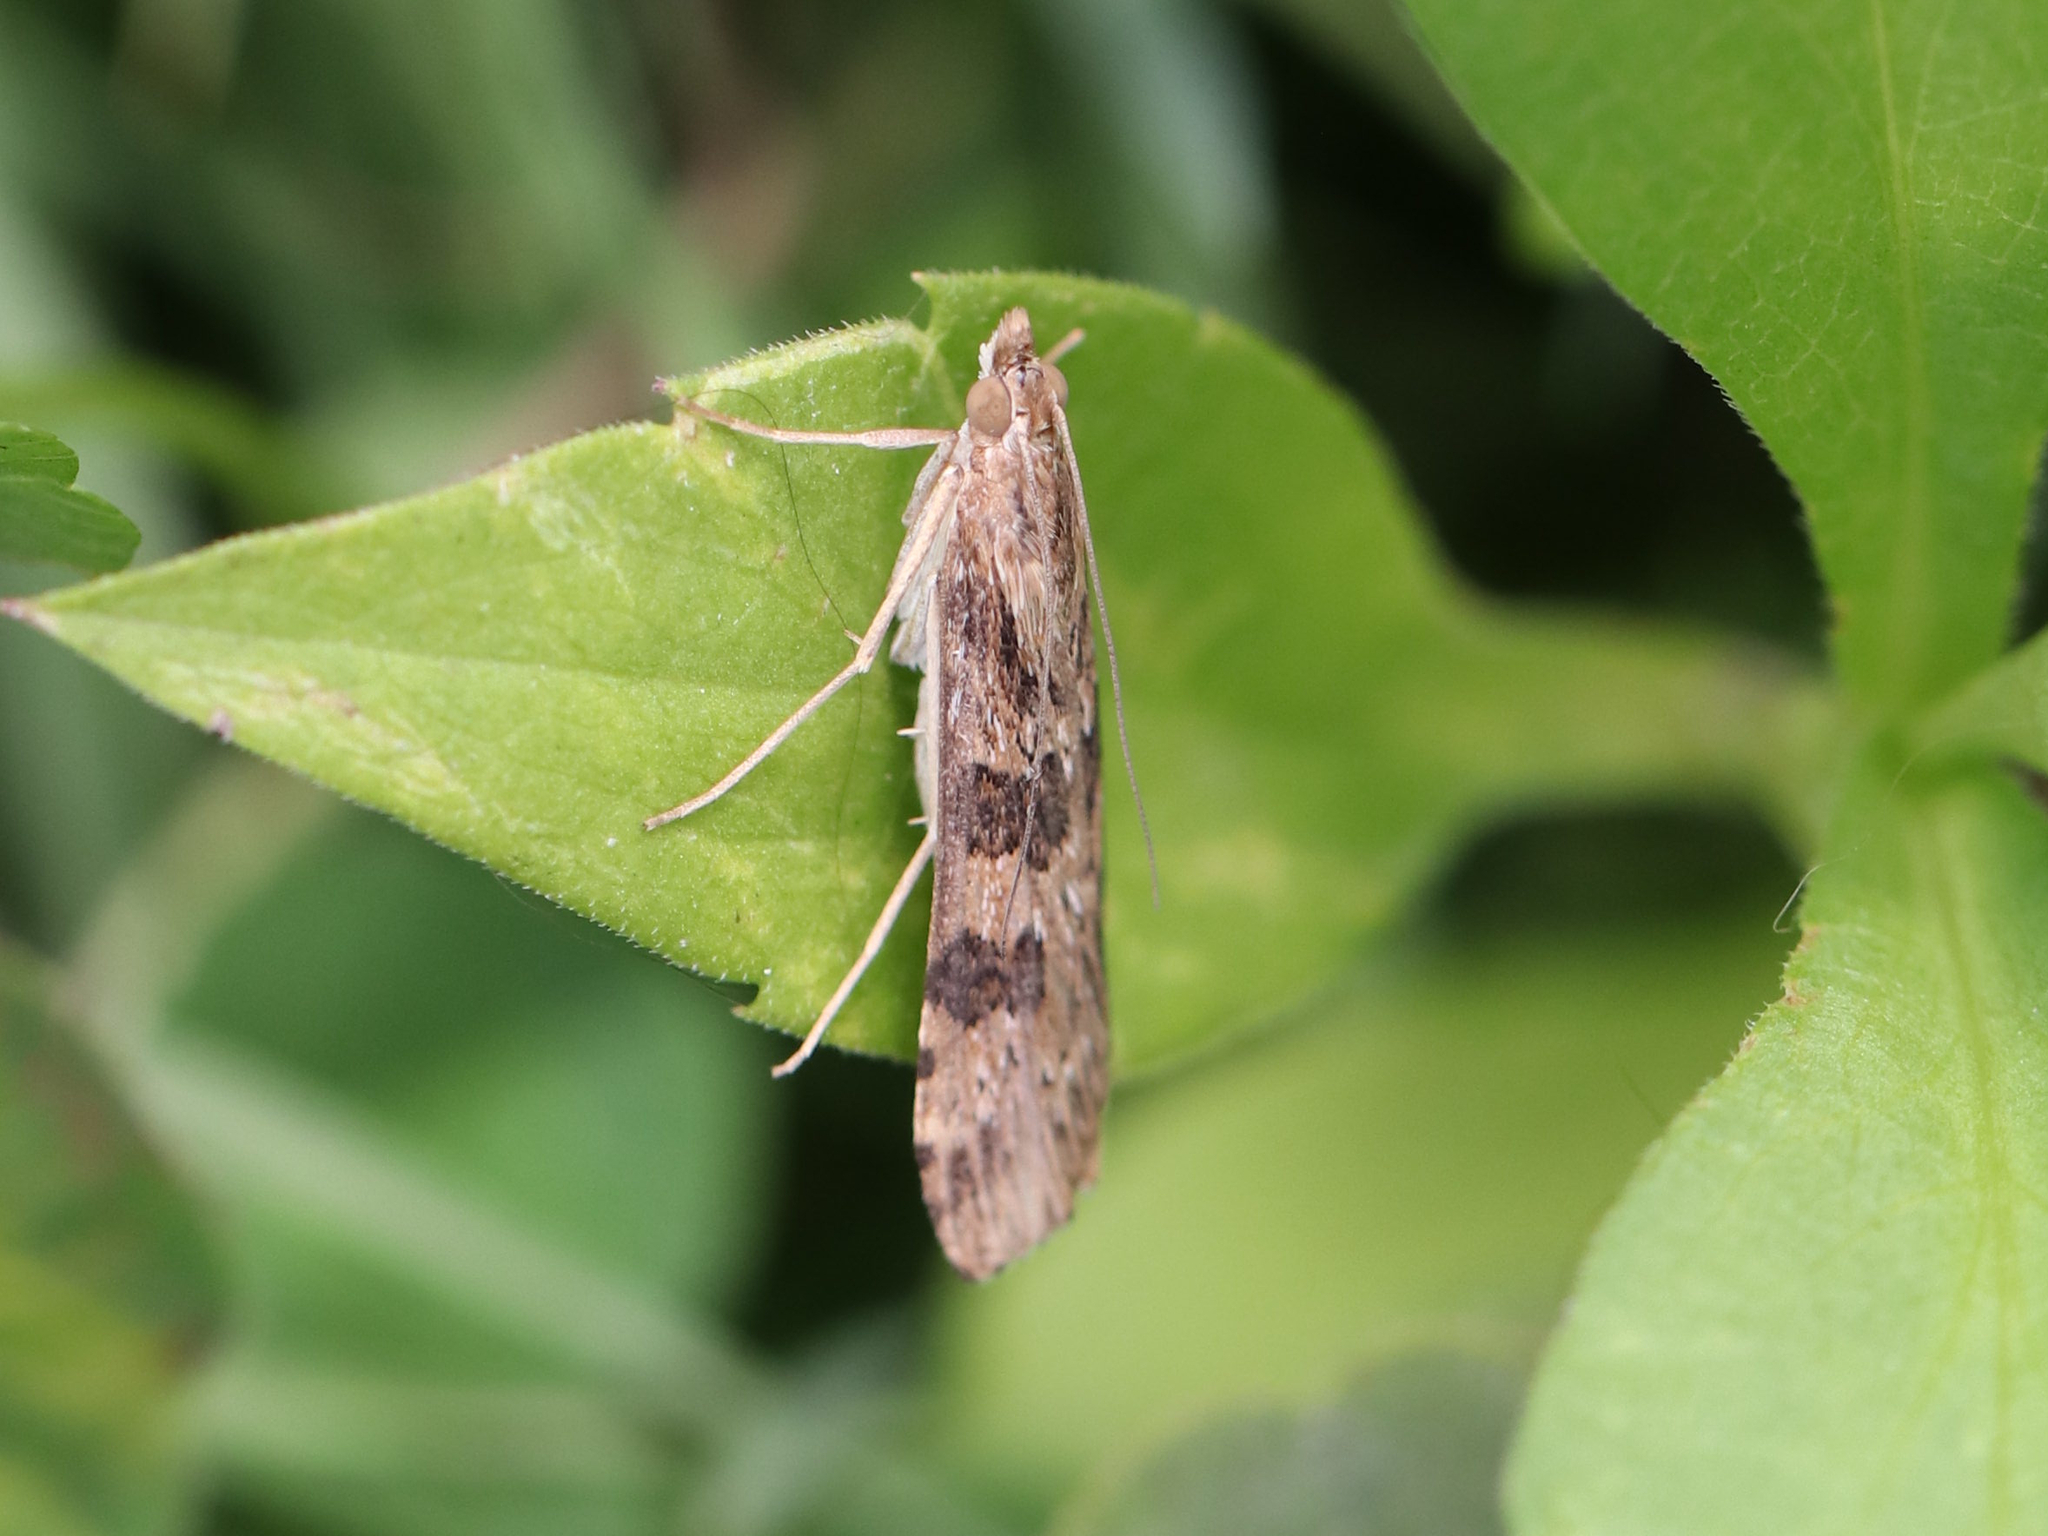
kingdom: Animalia
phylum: Arthropoda
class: Insecta
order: Lepidoptera
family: Crambidae
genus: Nomophila
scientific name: Nomophila nearctica
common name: American rush veneer
